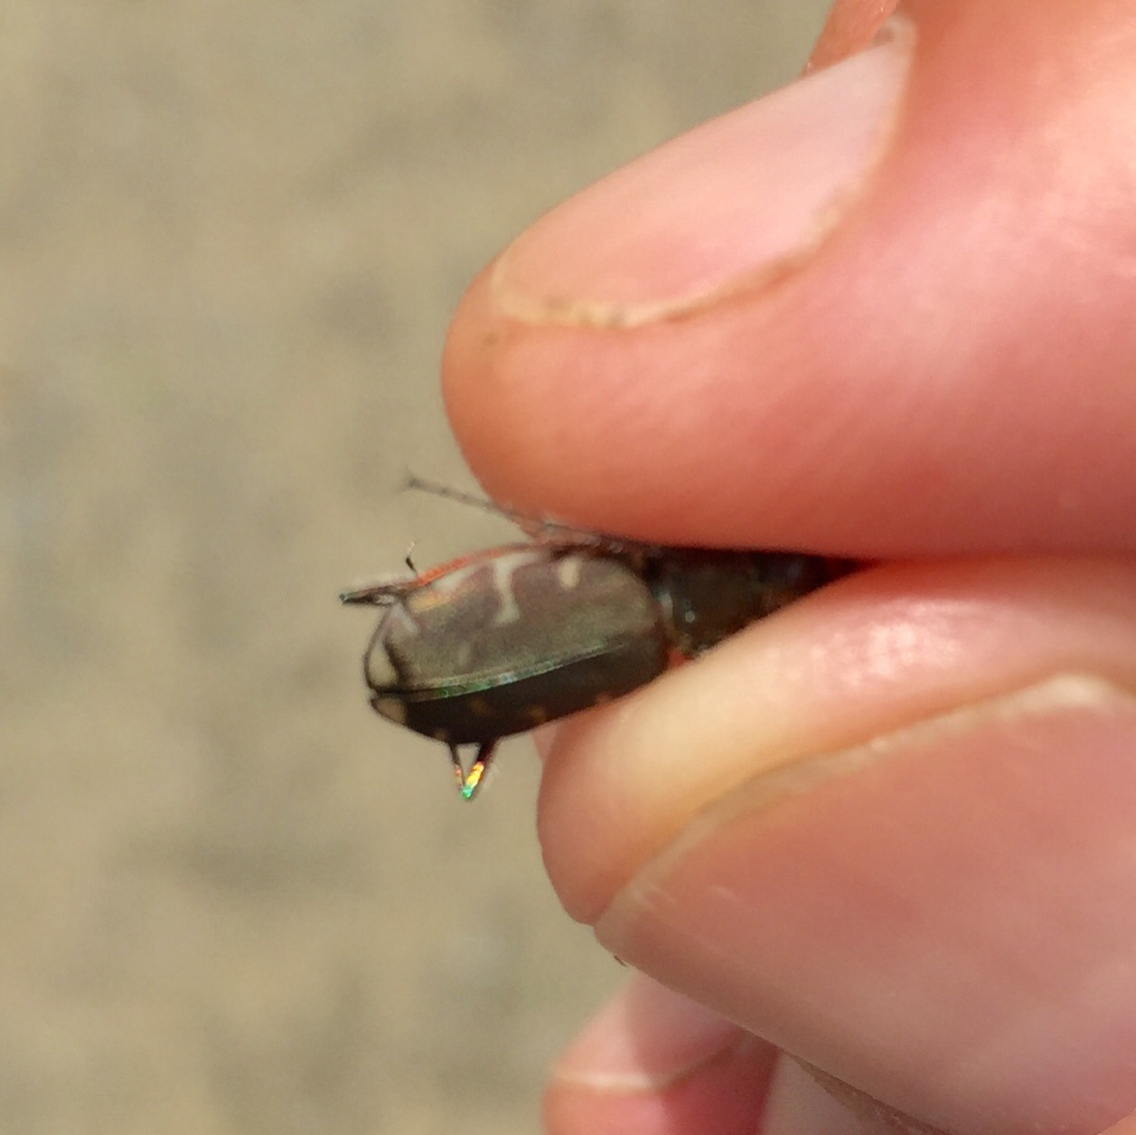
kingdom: Animalia
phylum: Arthropoda
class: Insecta
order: Coleoptera
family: Carabidae
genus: Cicindela
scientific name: Cicindela repanda
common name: Bronzed tiger beetle
